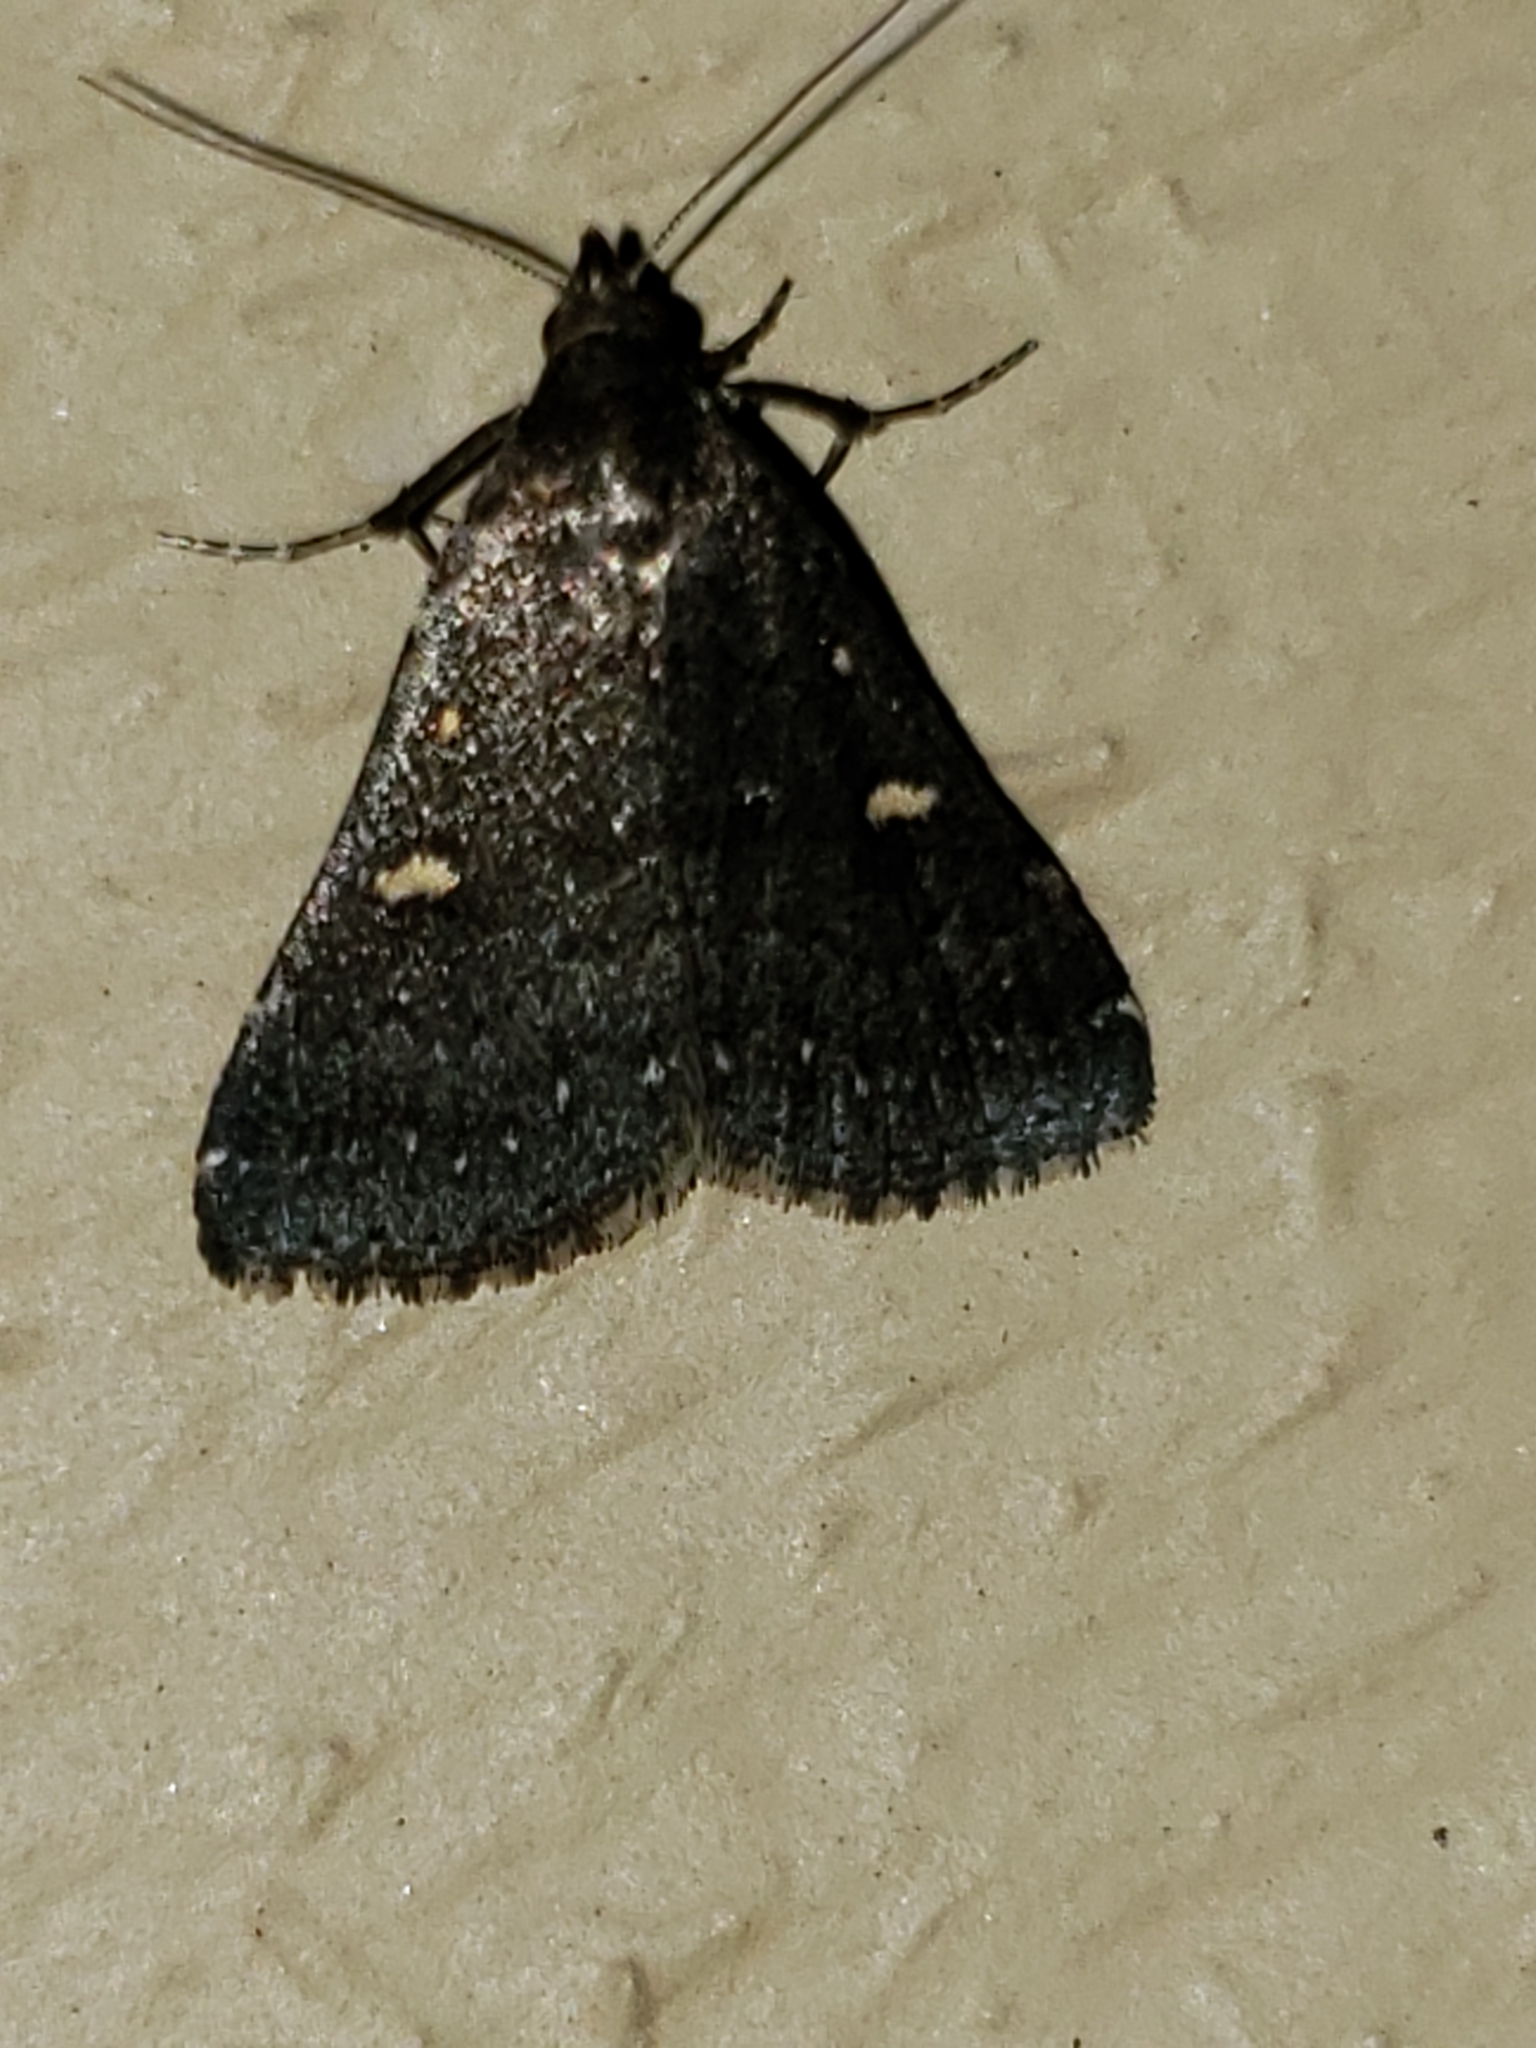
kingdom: Animalia
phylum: Arthropoda
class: Insecta
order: Lepidoptera
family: Erebidae
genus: Tetanolita
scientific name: Tetanolita mynesalis
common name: Smoky tetanolita moth
